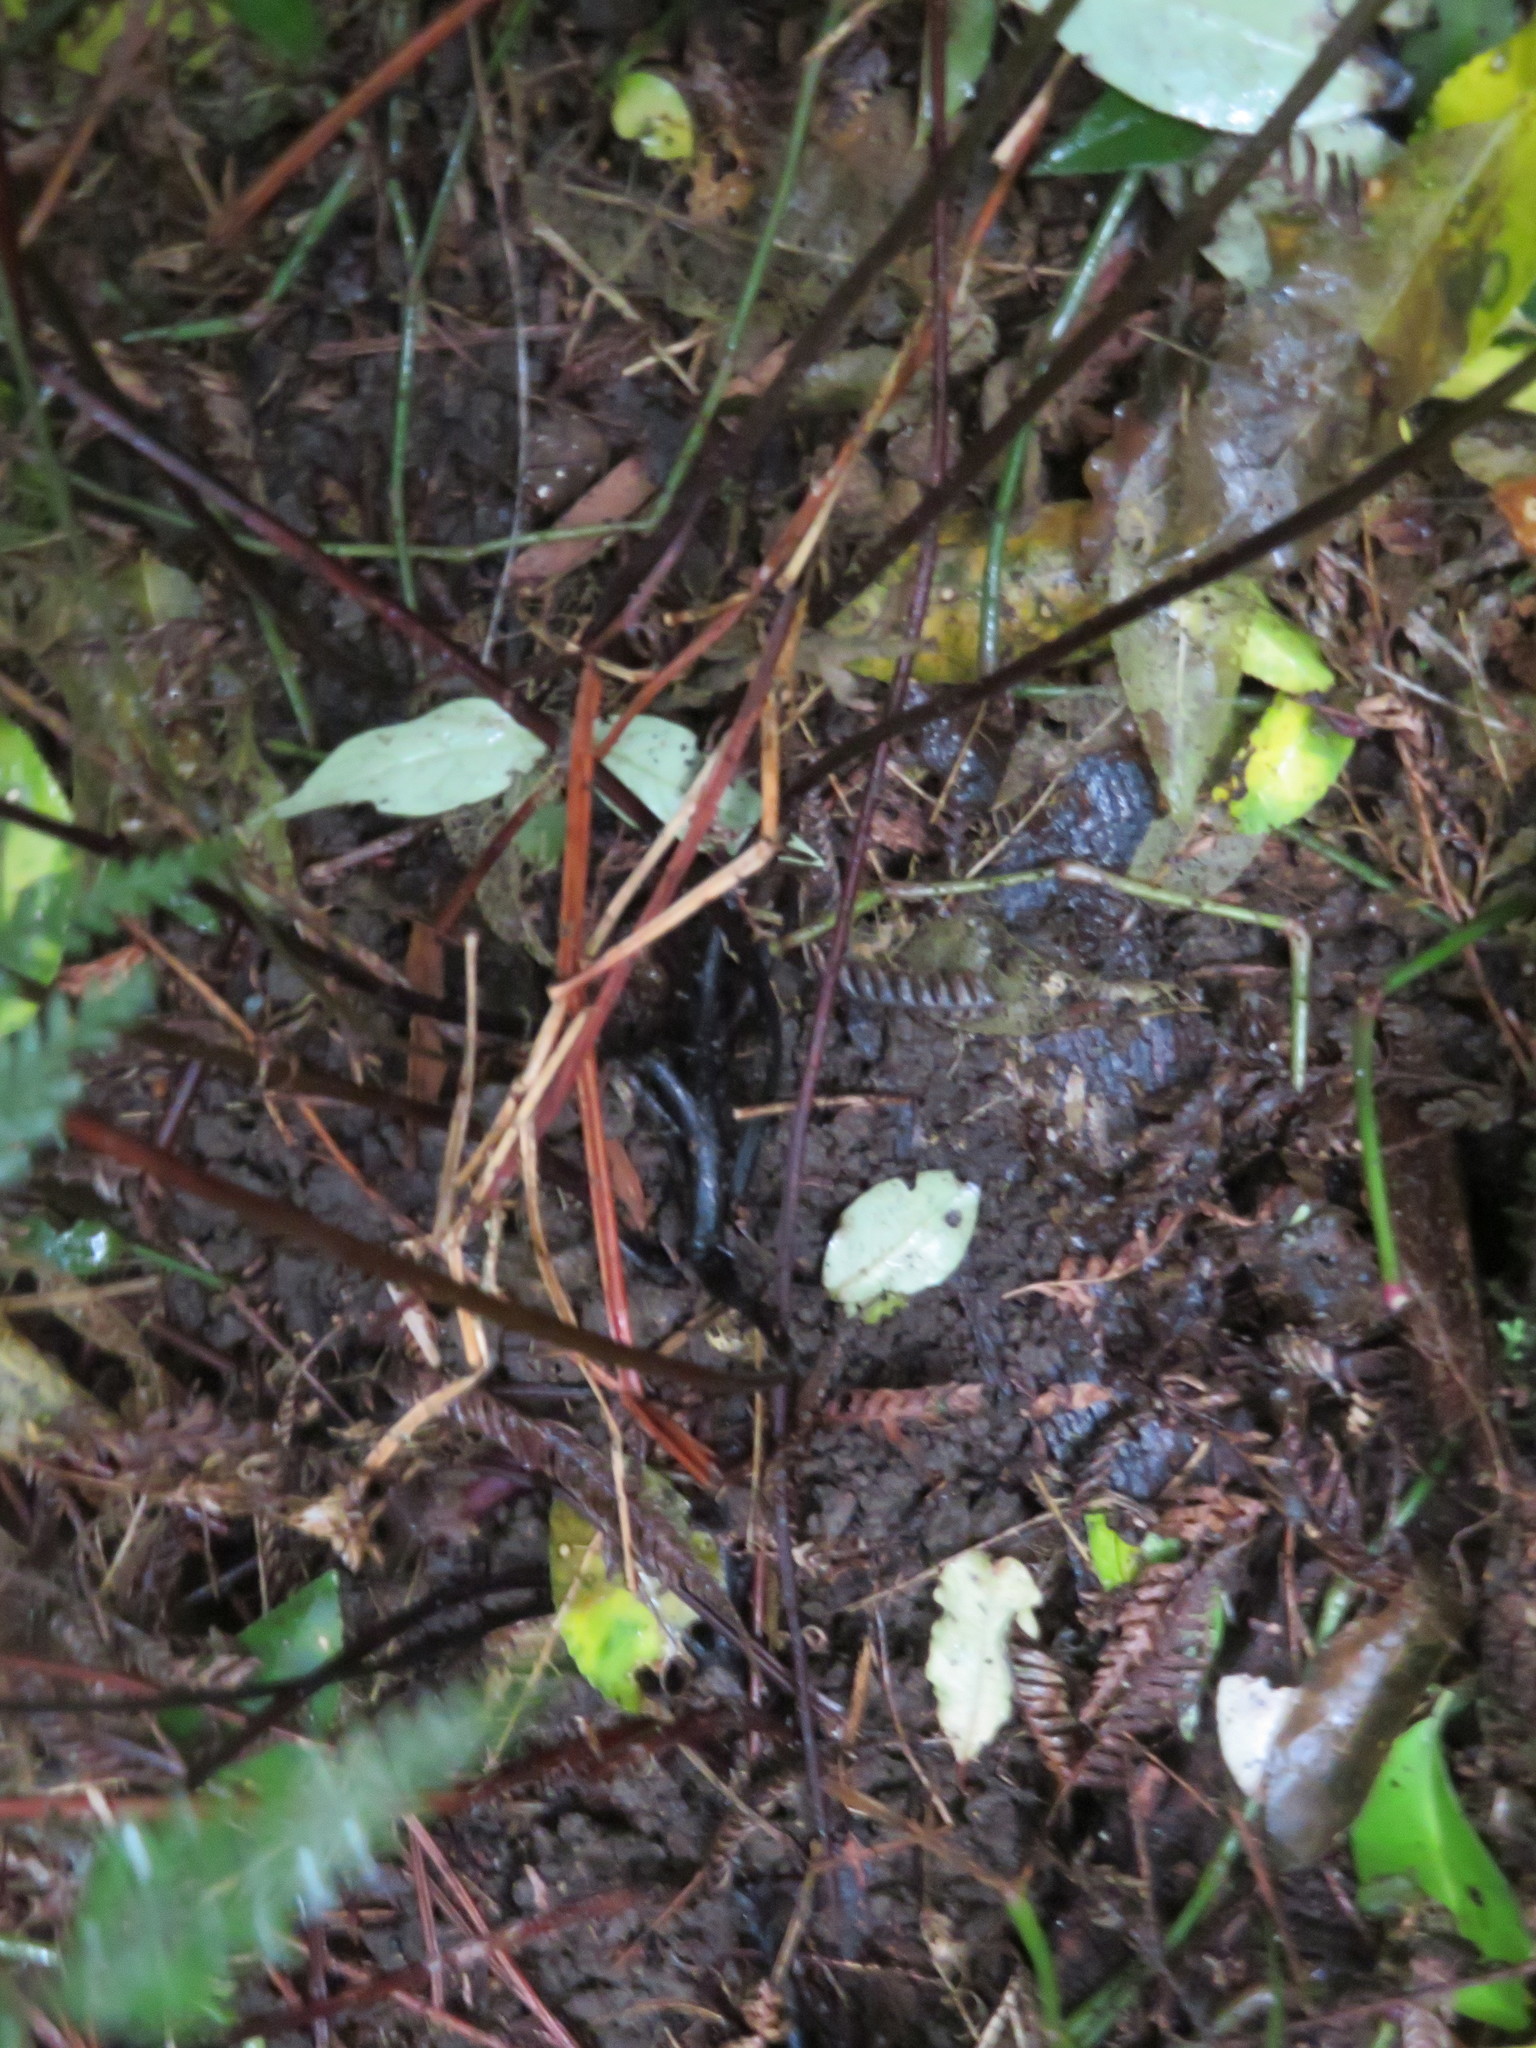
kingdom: Plantae
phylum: Tracheophyta
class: Polypodiopsida
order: Polypodiales
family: Dryopteridaceae
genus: Parapolystichum
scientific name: Parapolystichum microsorum
